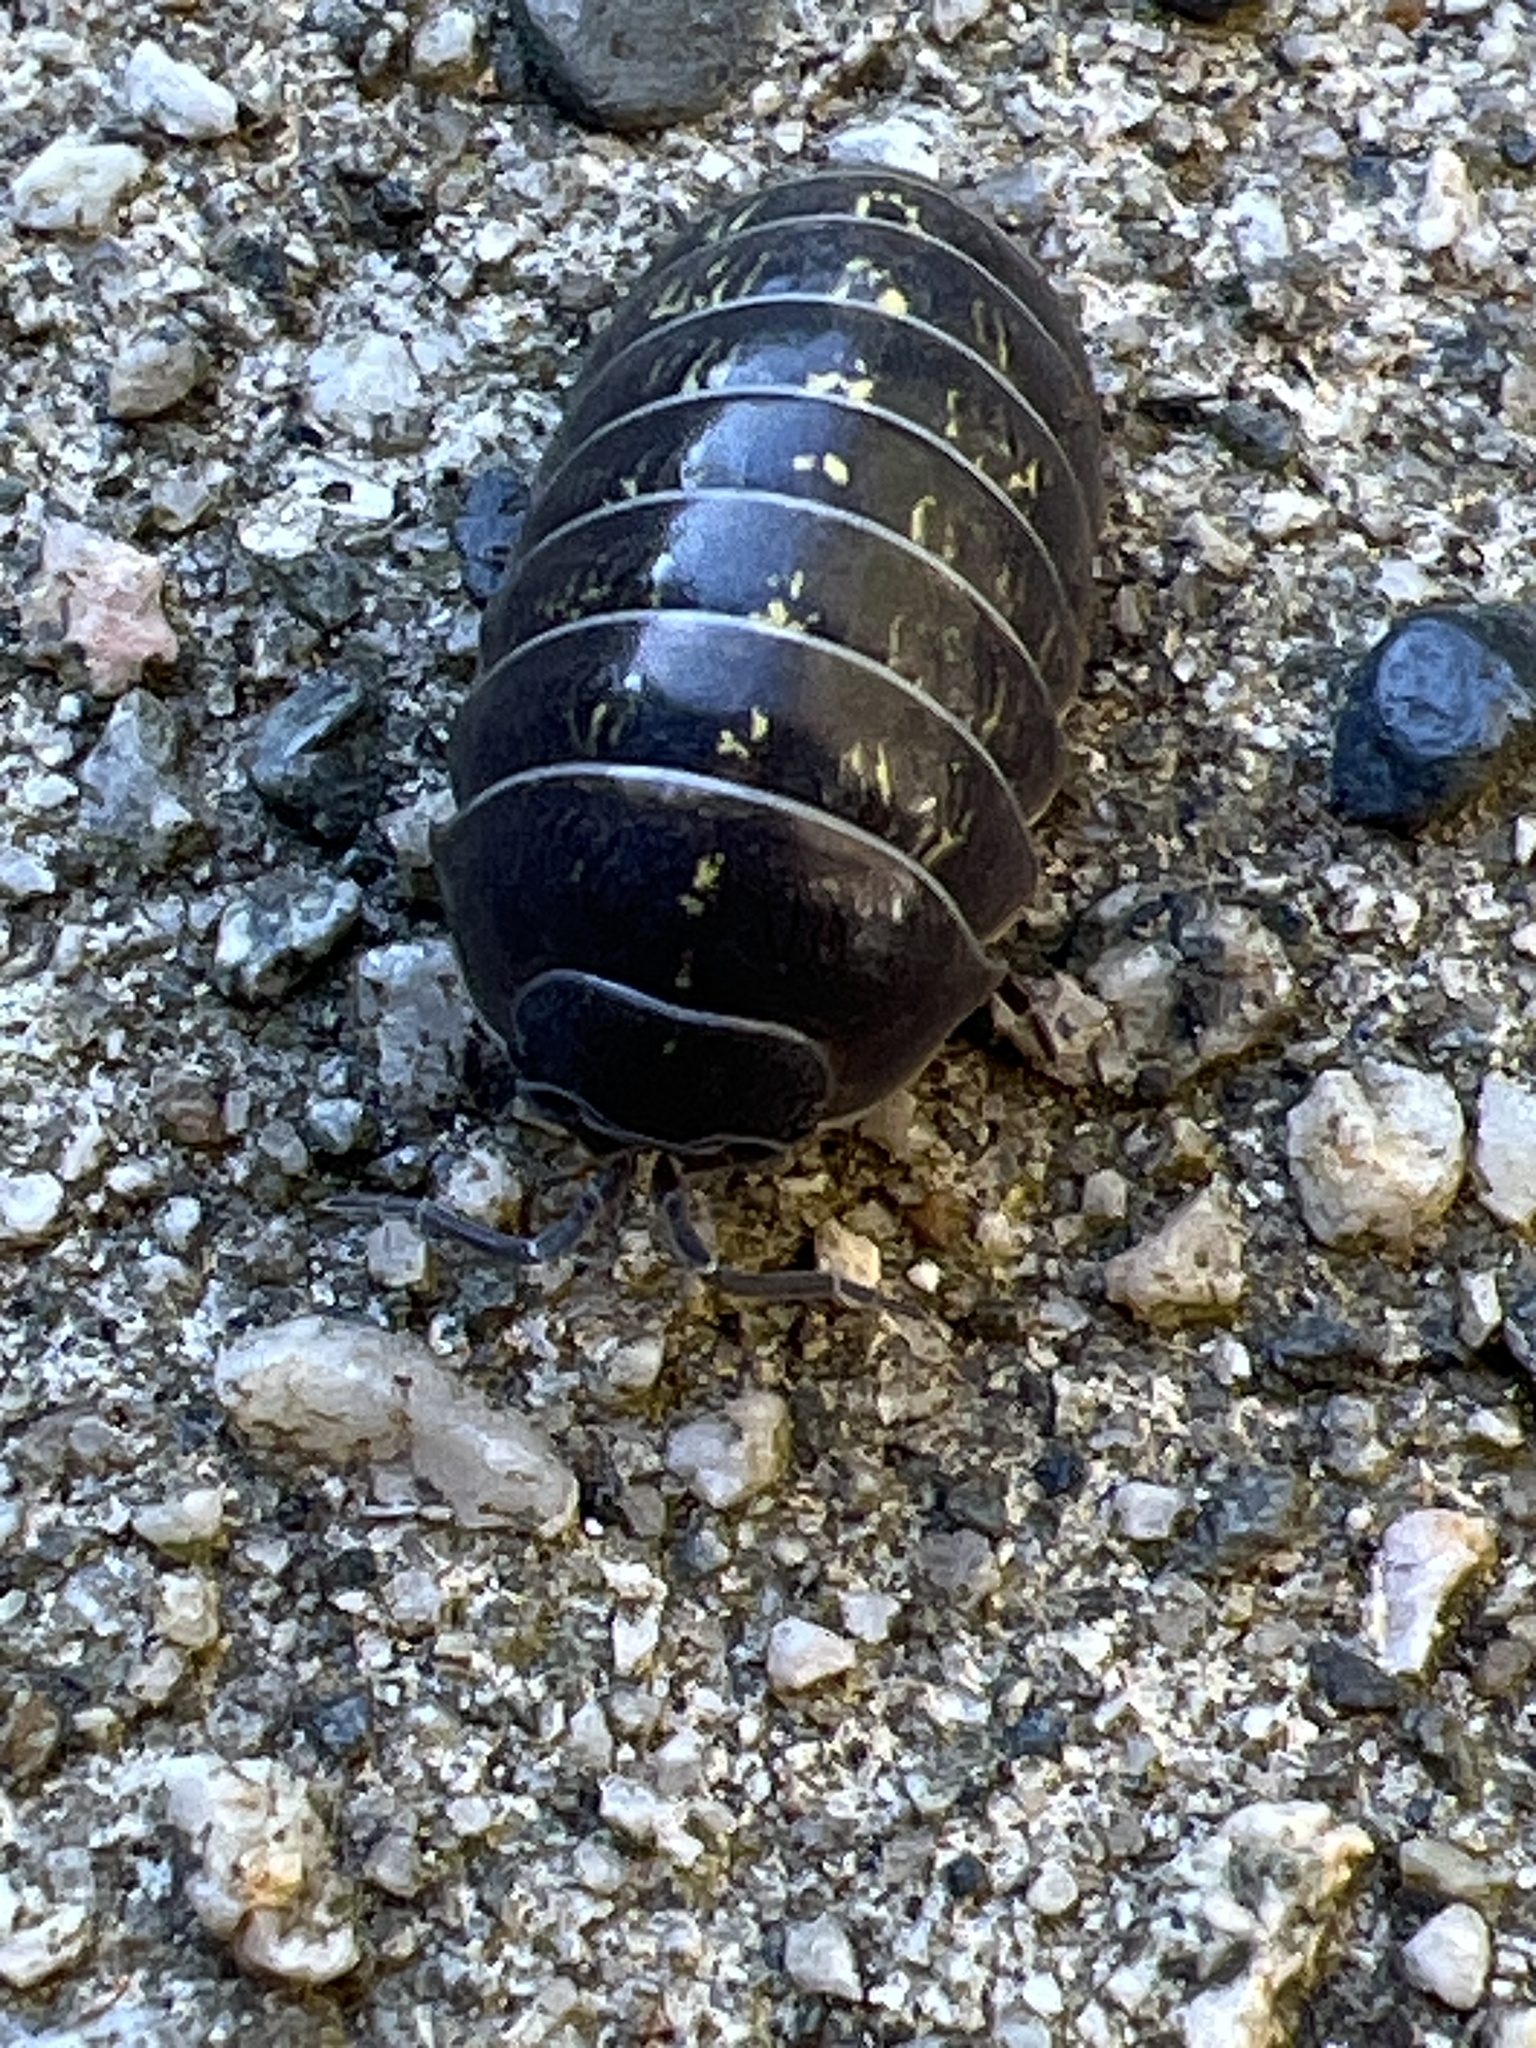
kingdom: Animalia
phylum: Arthropoda
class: Malacostraca
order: Isopoda
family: Armadillidiidae
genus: Armadillidium
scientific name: Armadillidium vulgare
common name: Common pill woodlouse
